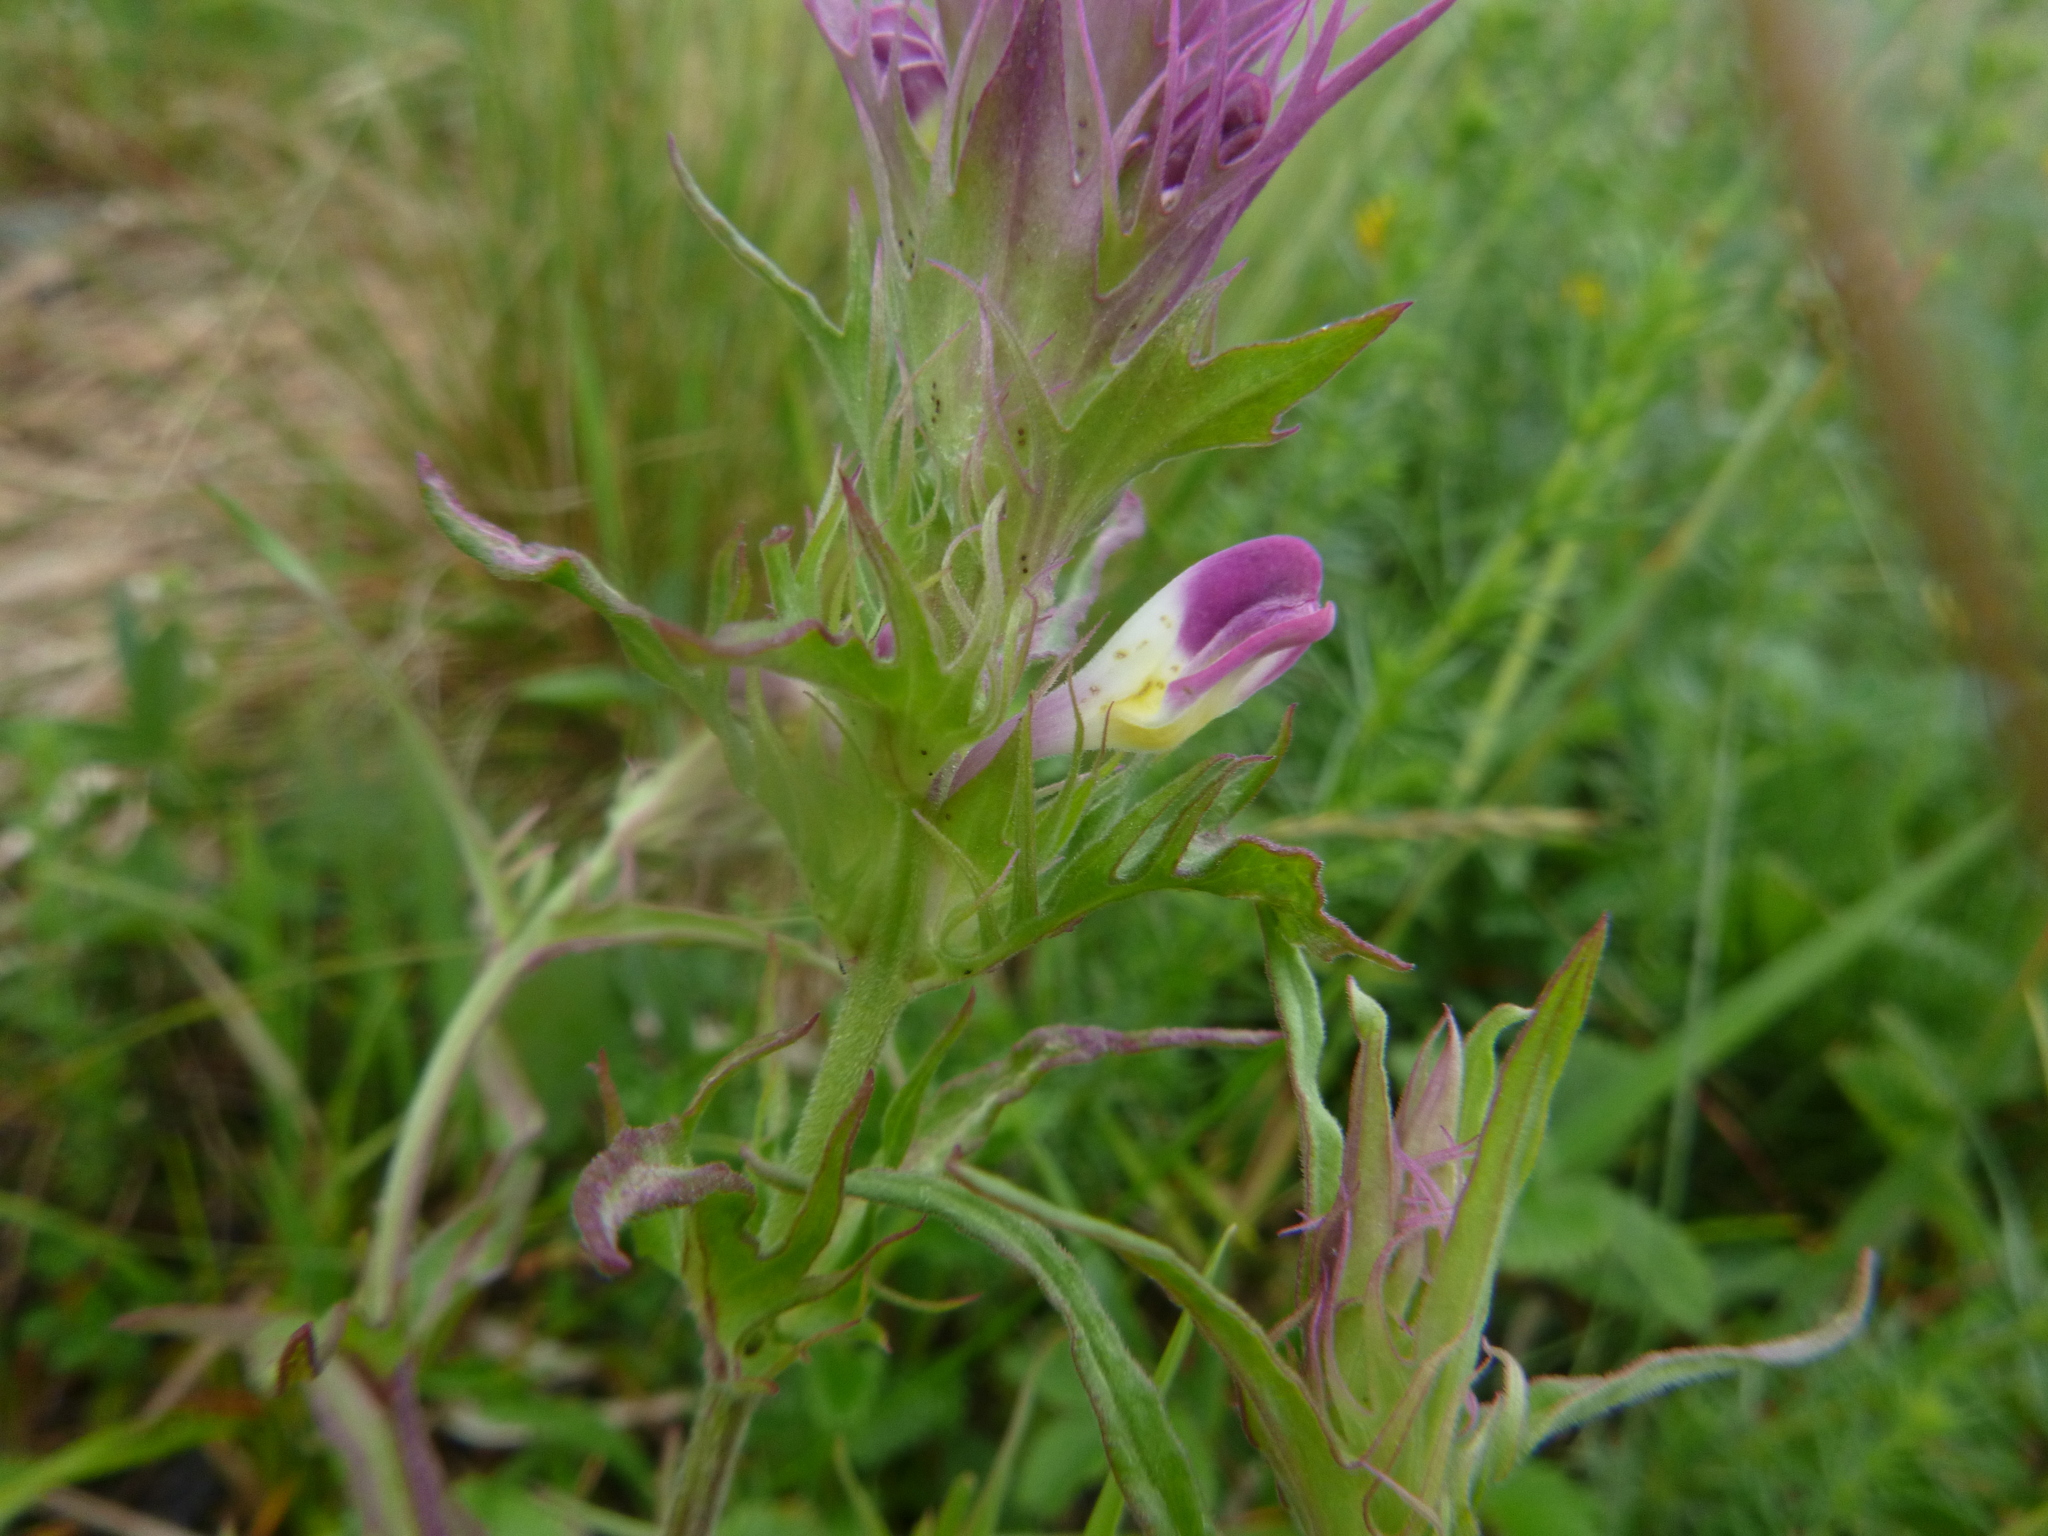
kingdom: Plantae
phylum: Tracheophyta
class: Magnoliopsida
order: Lamiales
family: Orobanchaceae
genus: Melampyrum
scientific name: Melampyrum arvense
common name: Field cow-wheat
